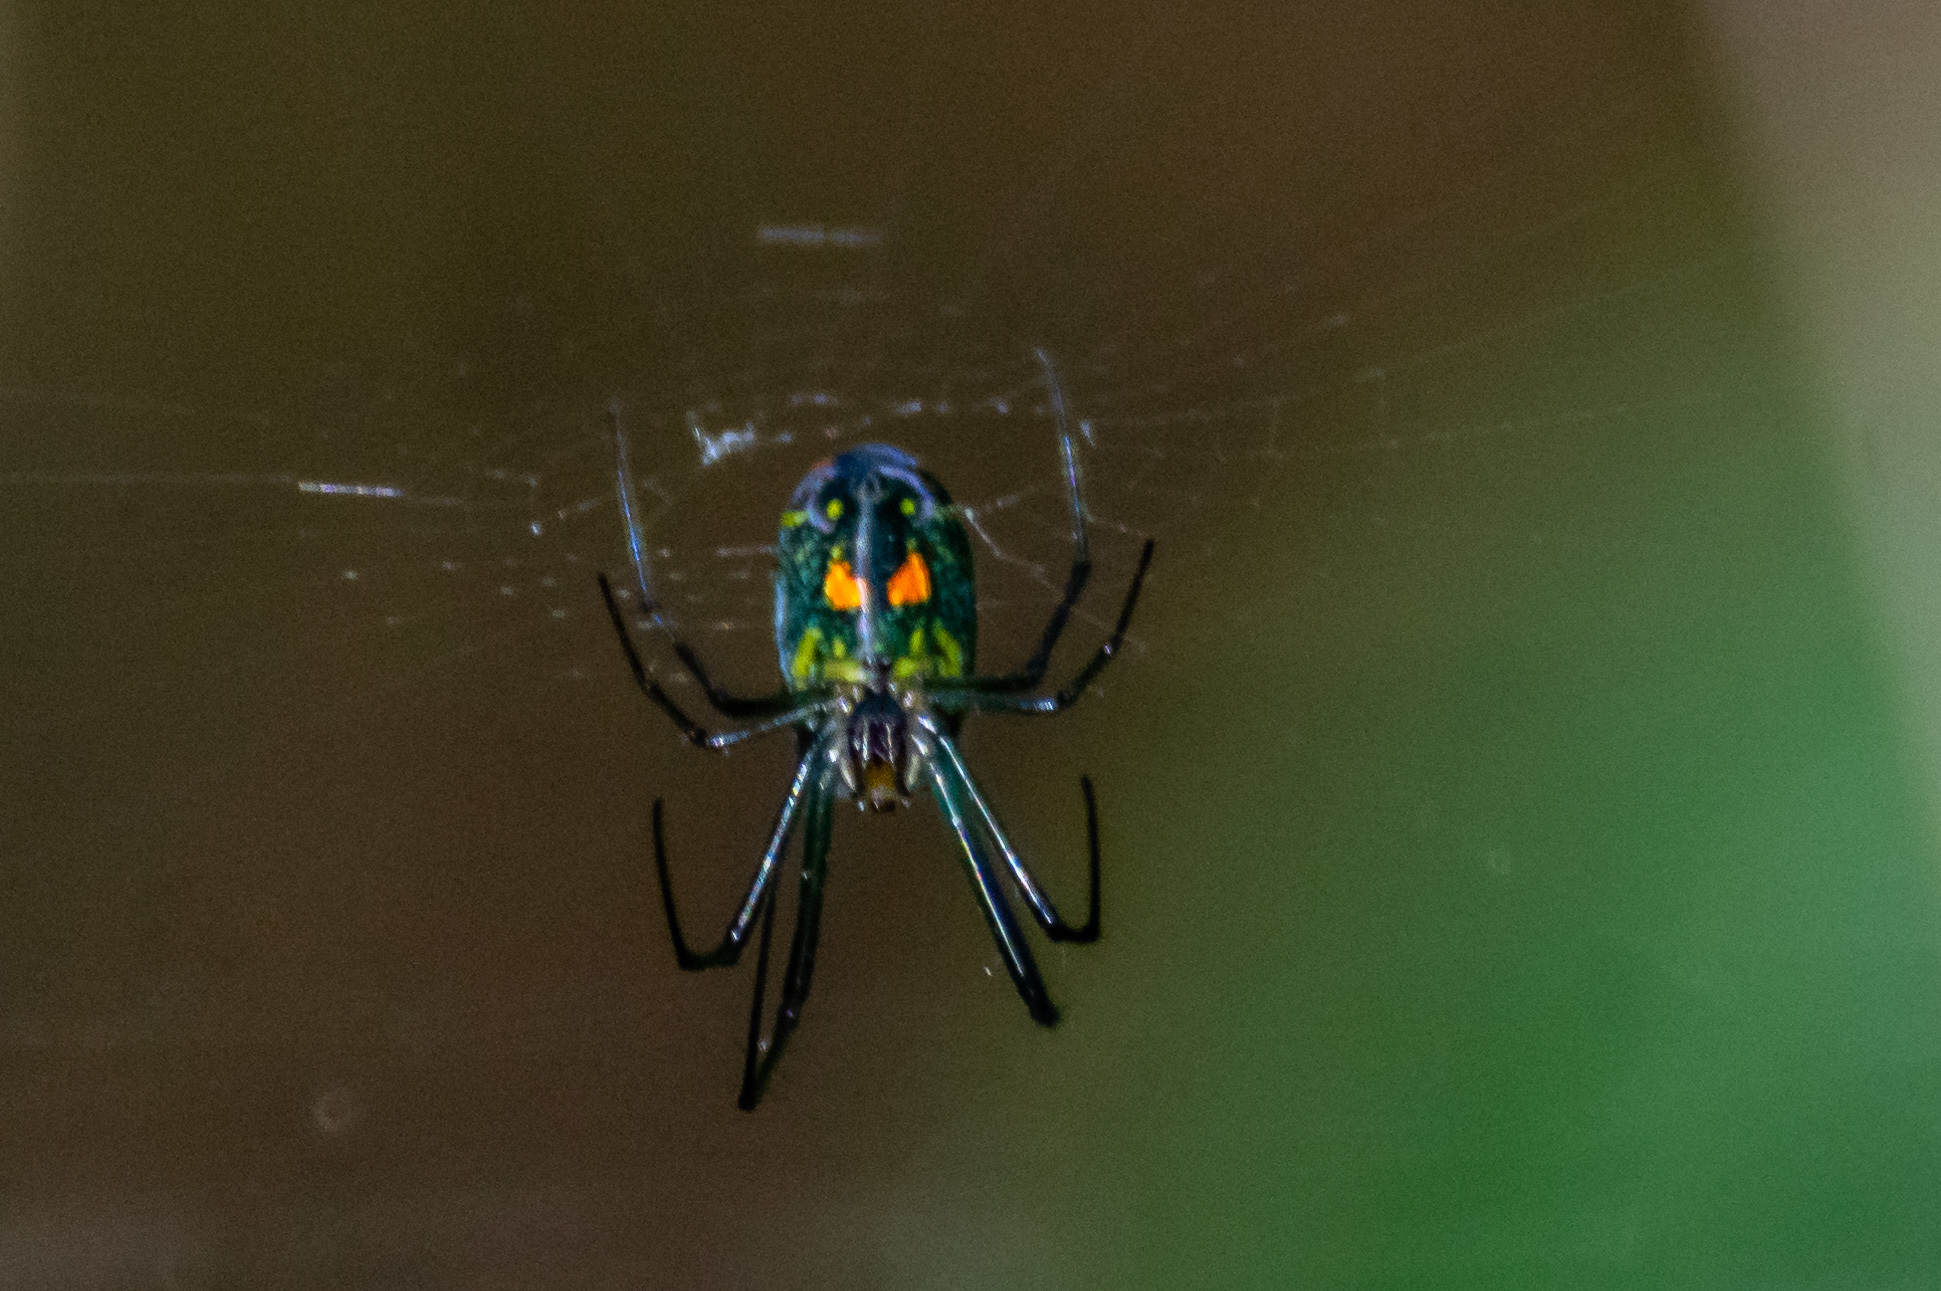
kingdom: Animalia
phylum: Arthropoda
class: Arachnida
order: Araneae
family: Tetragnathidae
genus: Leucauge
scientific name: Leucauge argyrobapta
